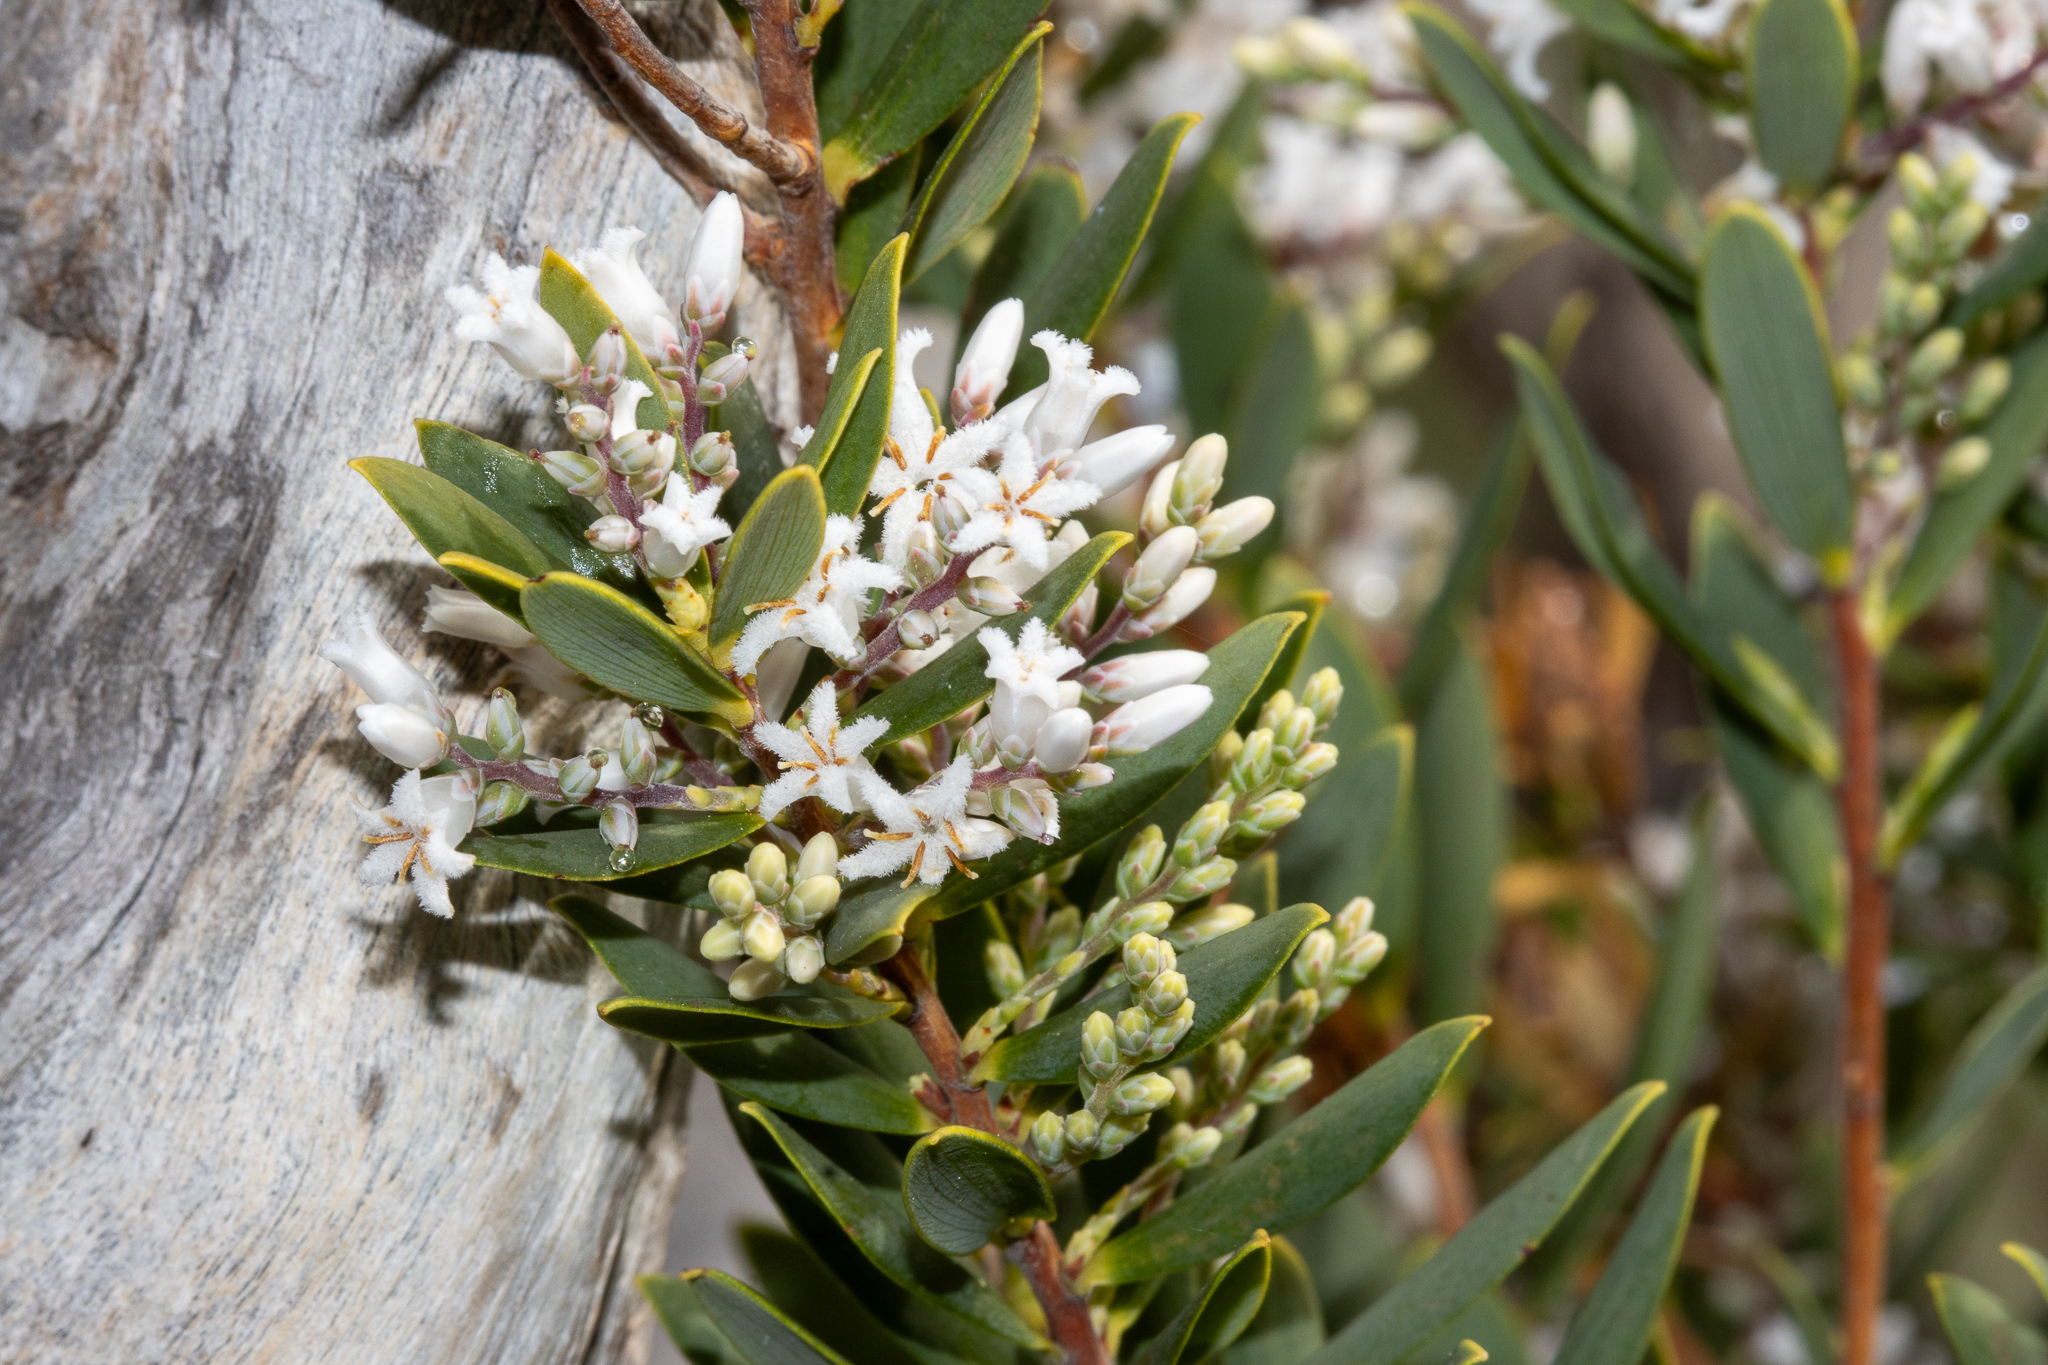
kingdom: Plantae
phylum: Tracheophyta
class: Magnoliopsida
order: Ericales
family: Ericaceae
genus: Leptecophylla
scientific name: Leptecophylla parvifolia
